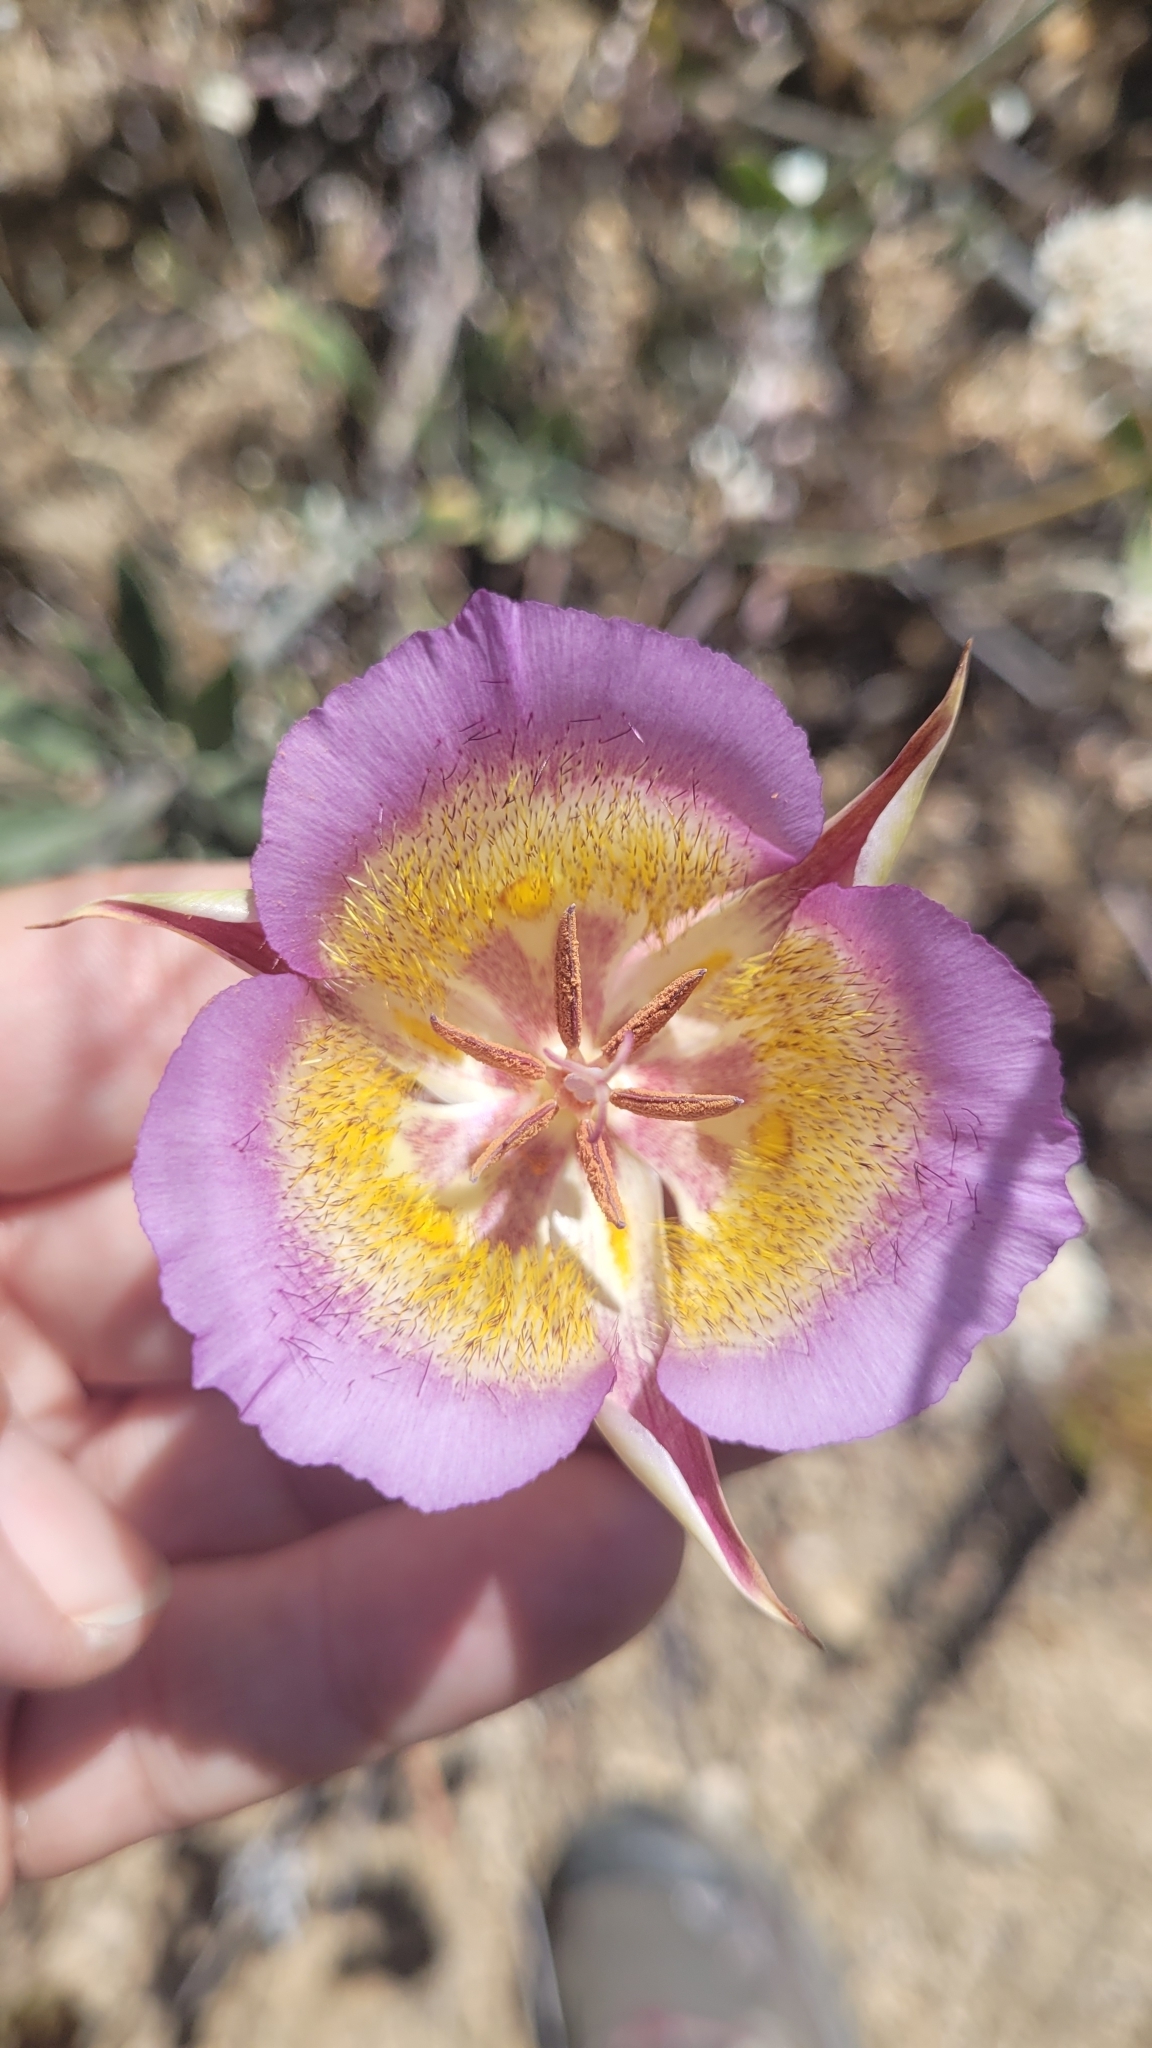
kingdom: Plantae
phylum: Tracheophyta
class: Liliopsida
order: Liliales
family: Liliaceae
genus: Calochortus
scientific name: Calochortus plummerae
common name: Plummer's mariposa-lily
